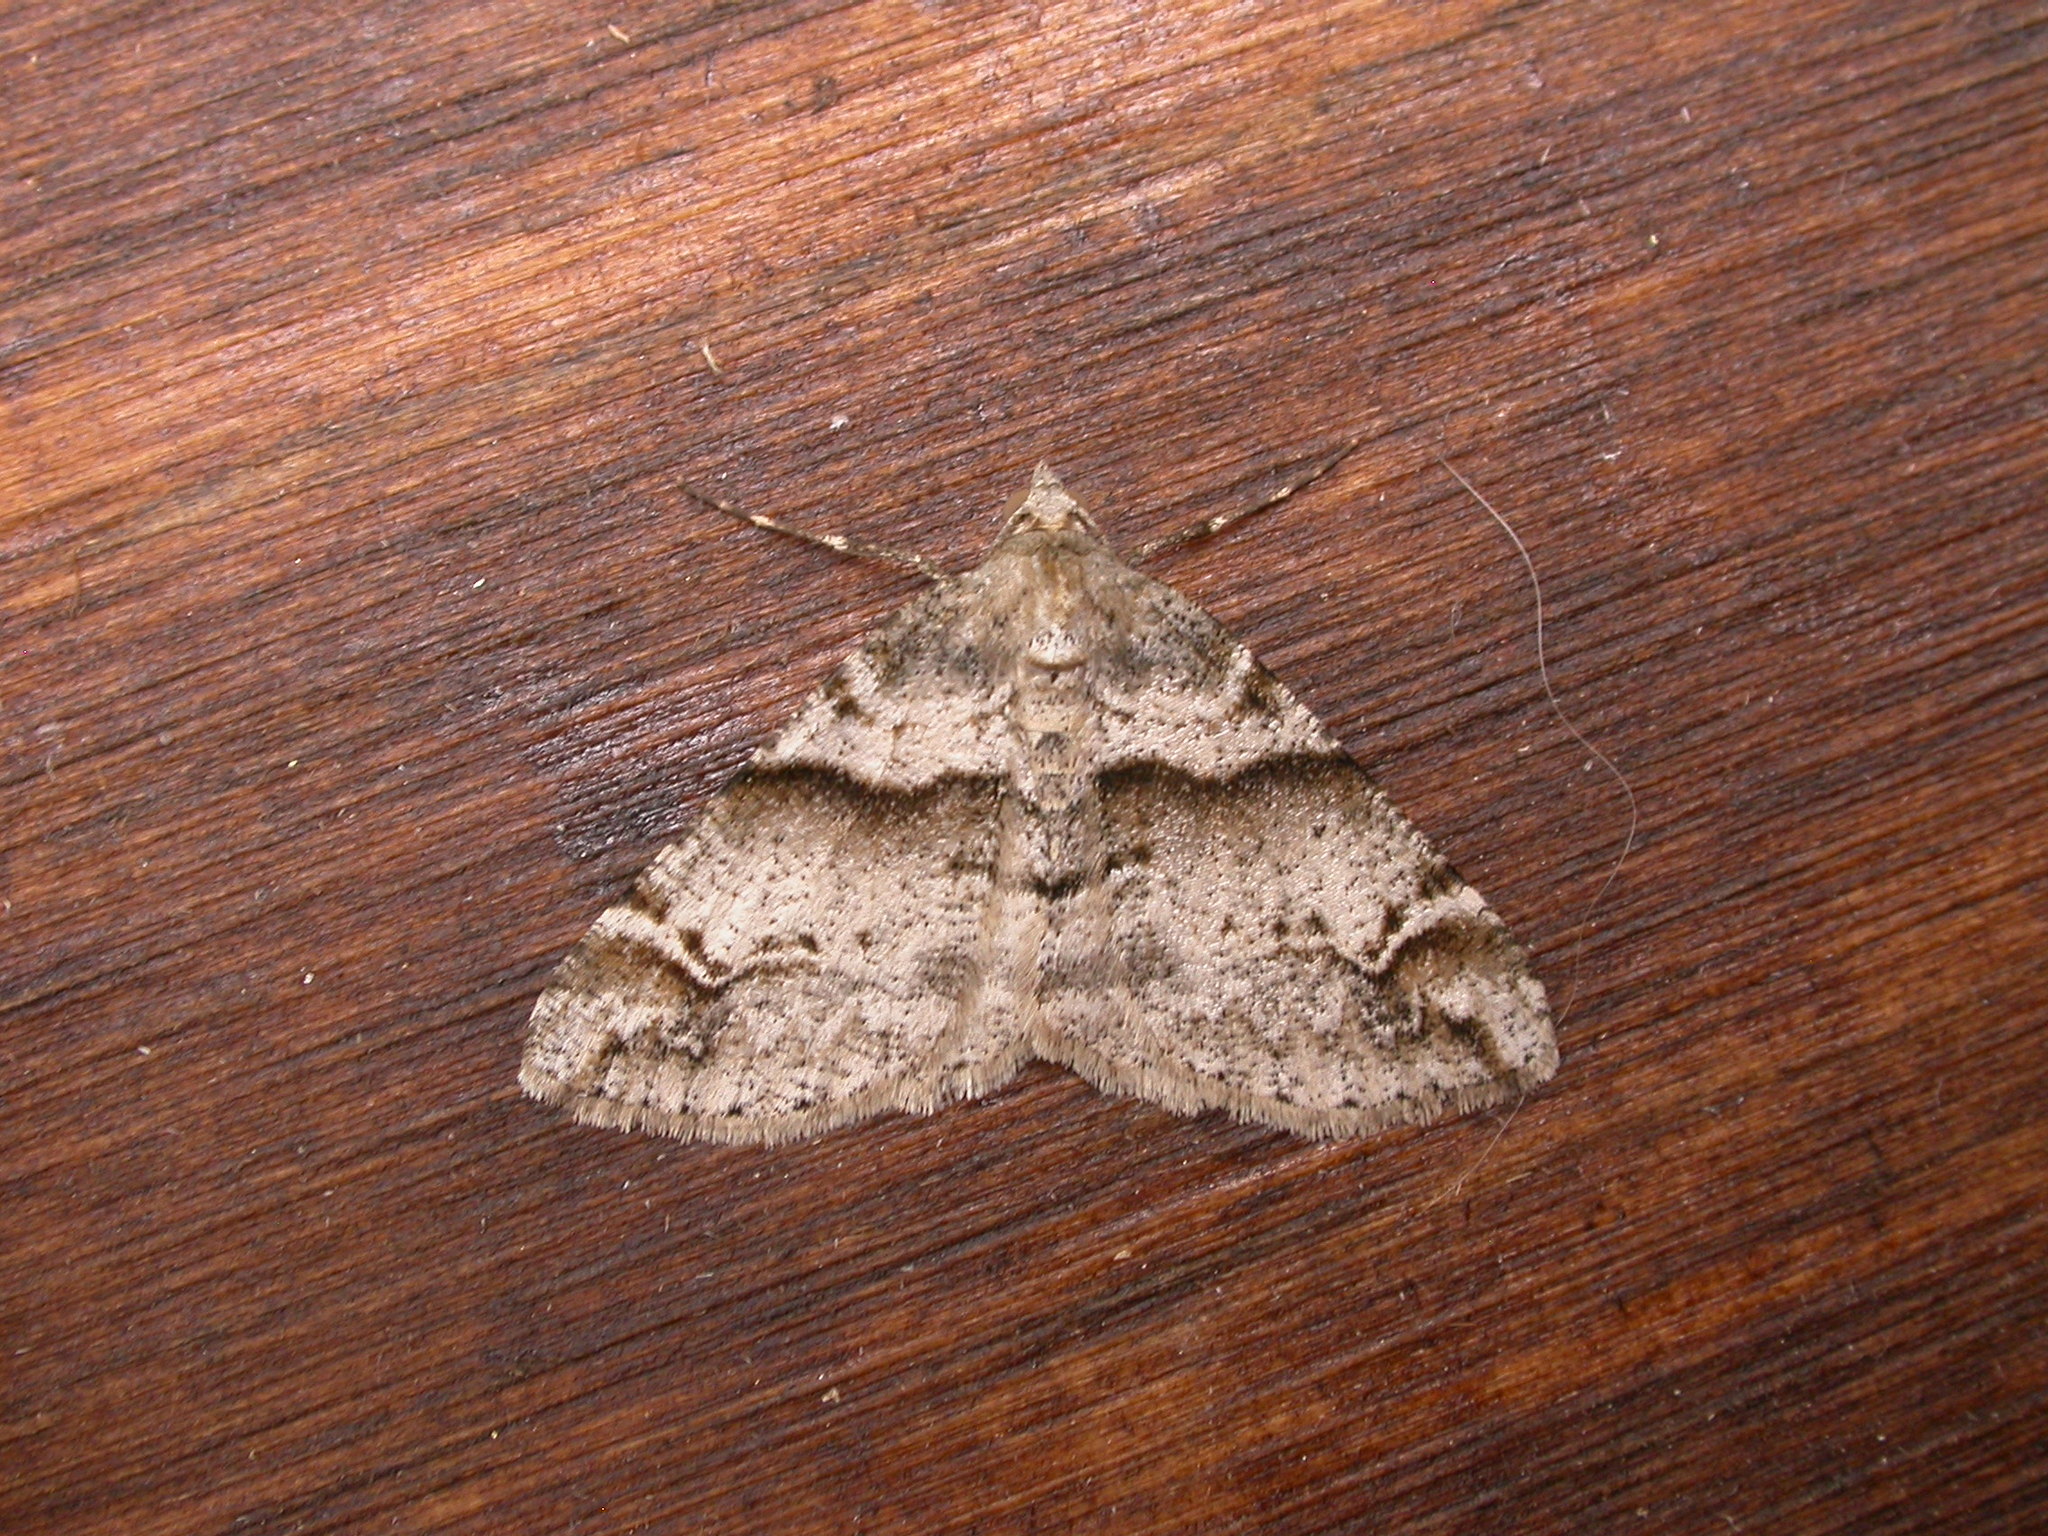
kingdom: Animalia
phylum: Arthropoda
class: Insecta
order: Lepidoptera
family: Geometridae
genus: Syneora
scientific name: Syneora hemeropa
